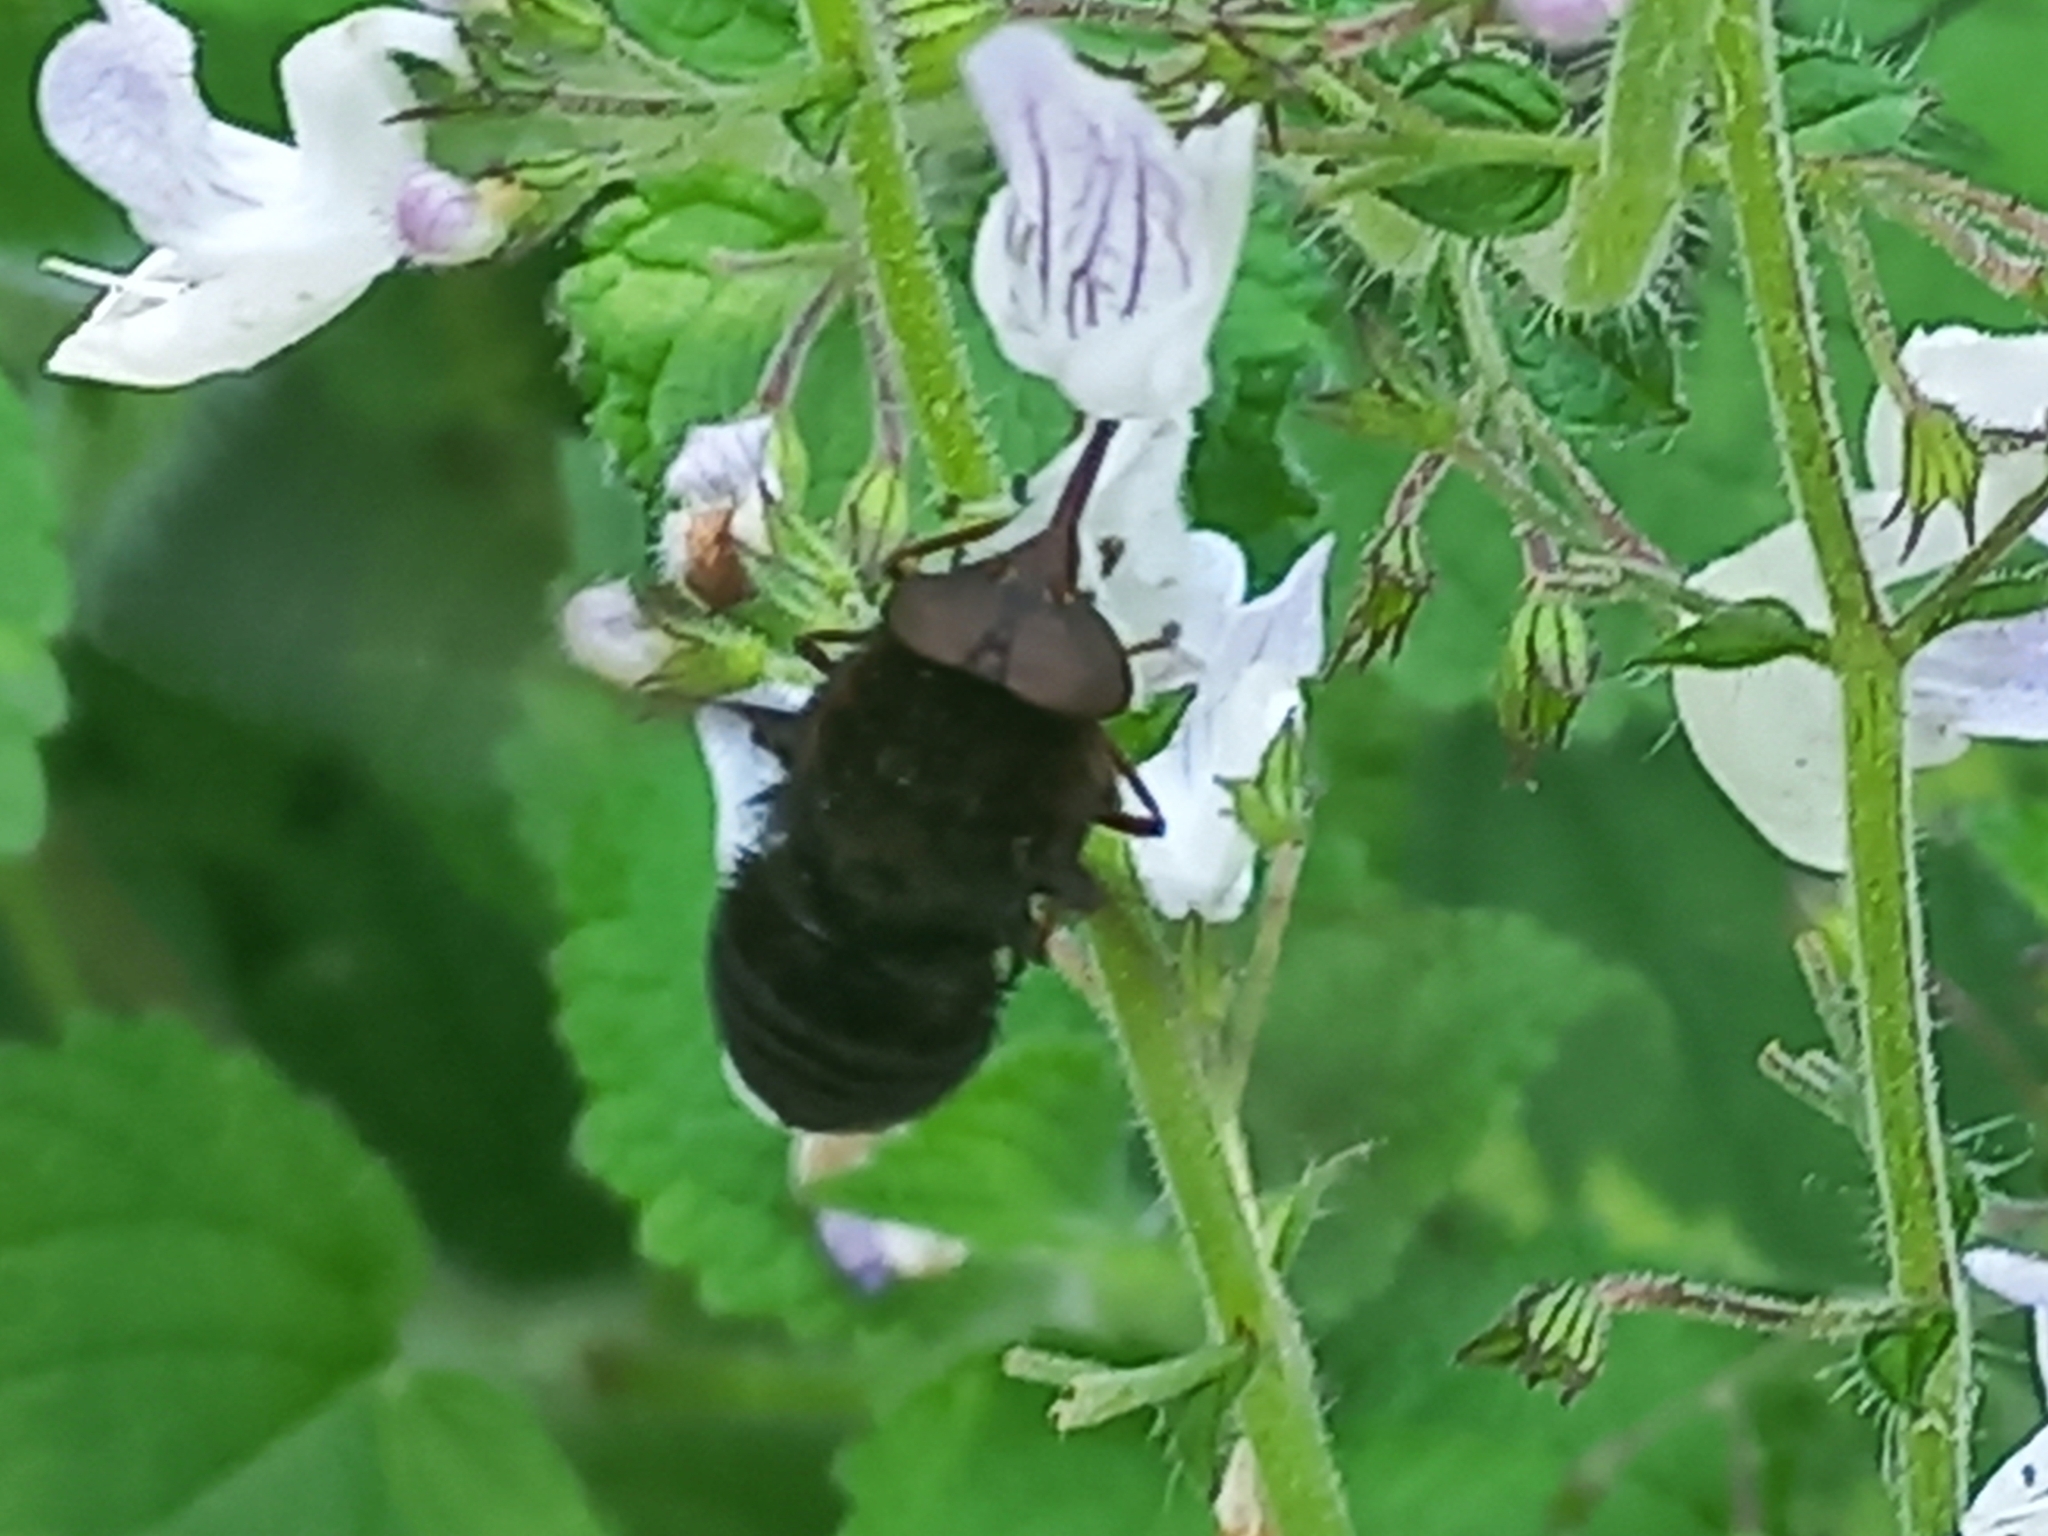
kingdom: Animalia
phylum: Arthropoda
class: Insecta
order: Diptera
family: Nemestrinidae
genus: Prosoeca
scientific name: Prosoeca atra
